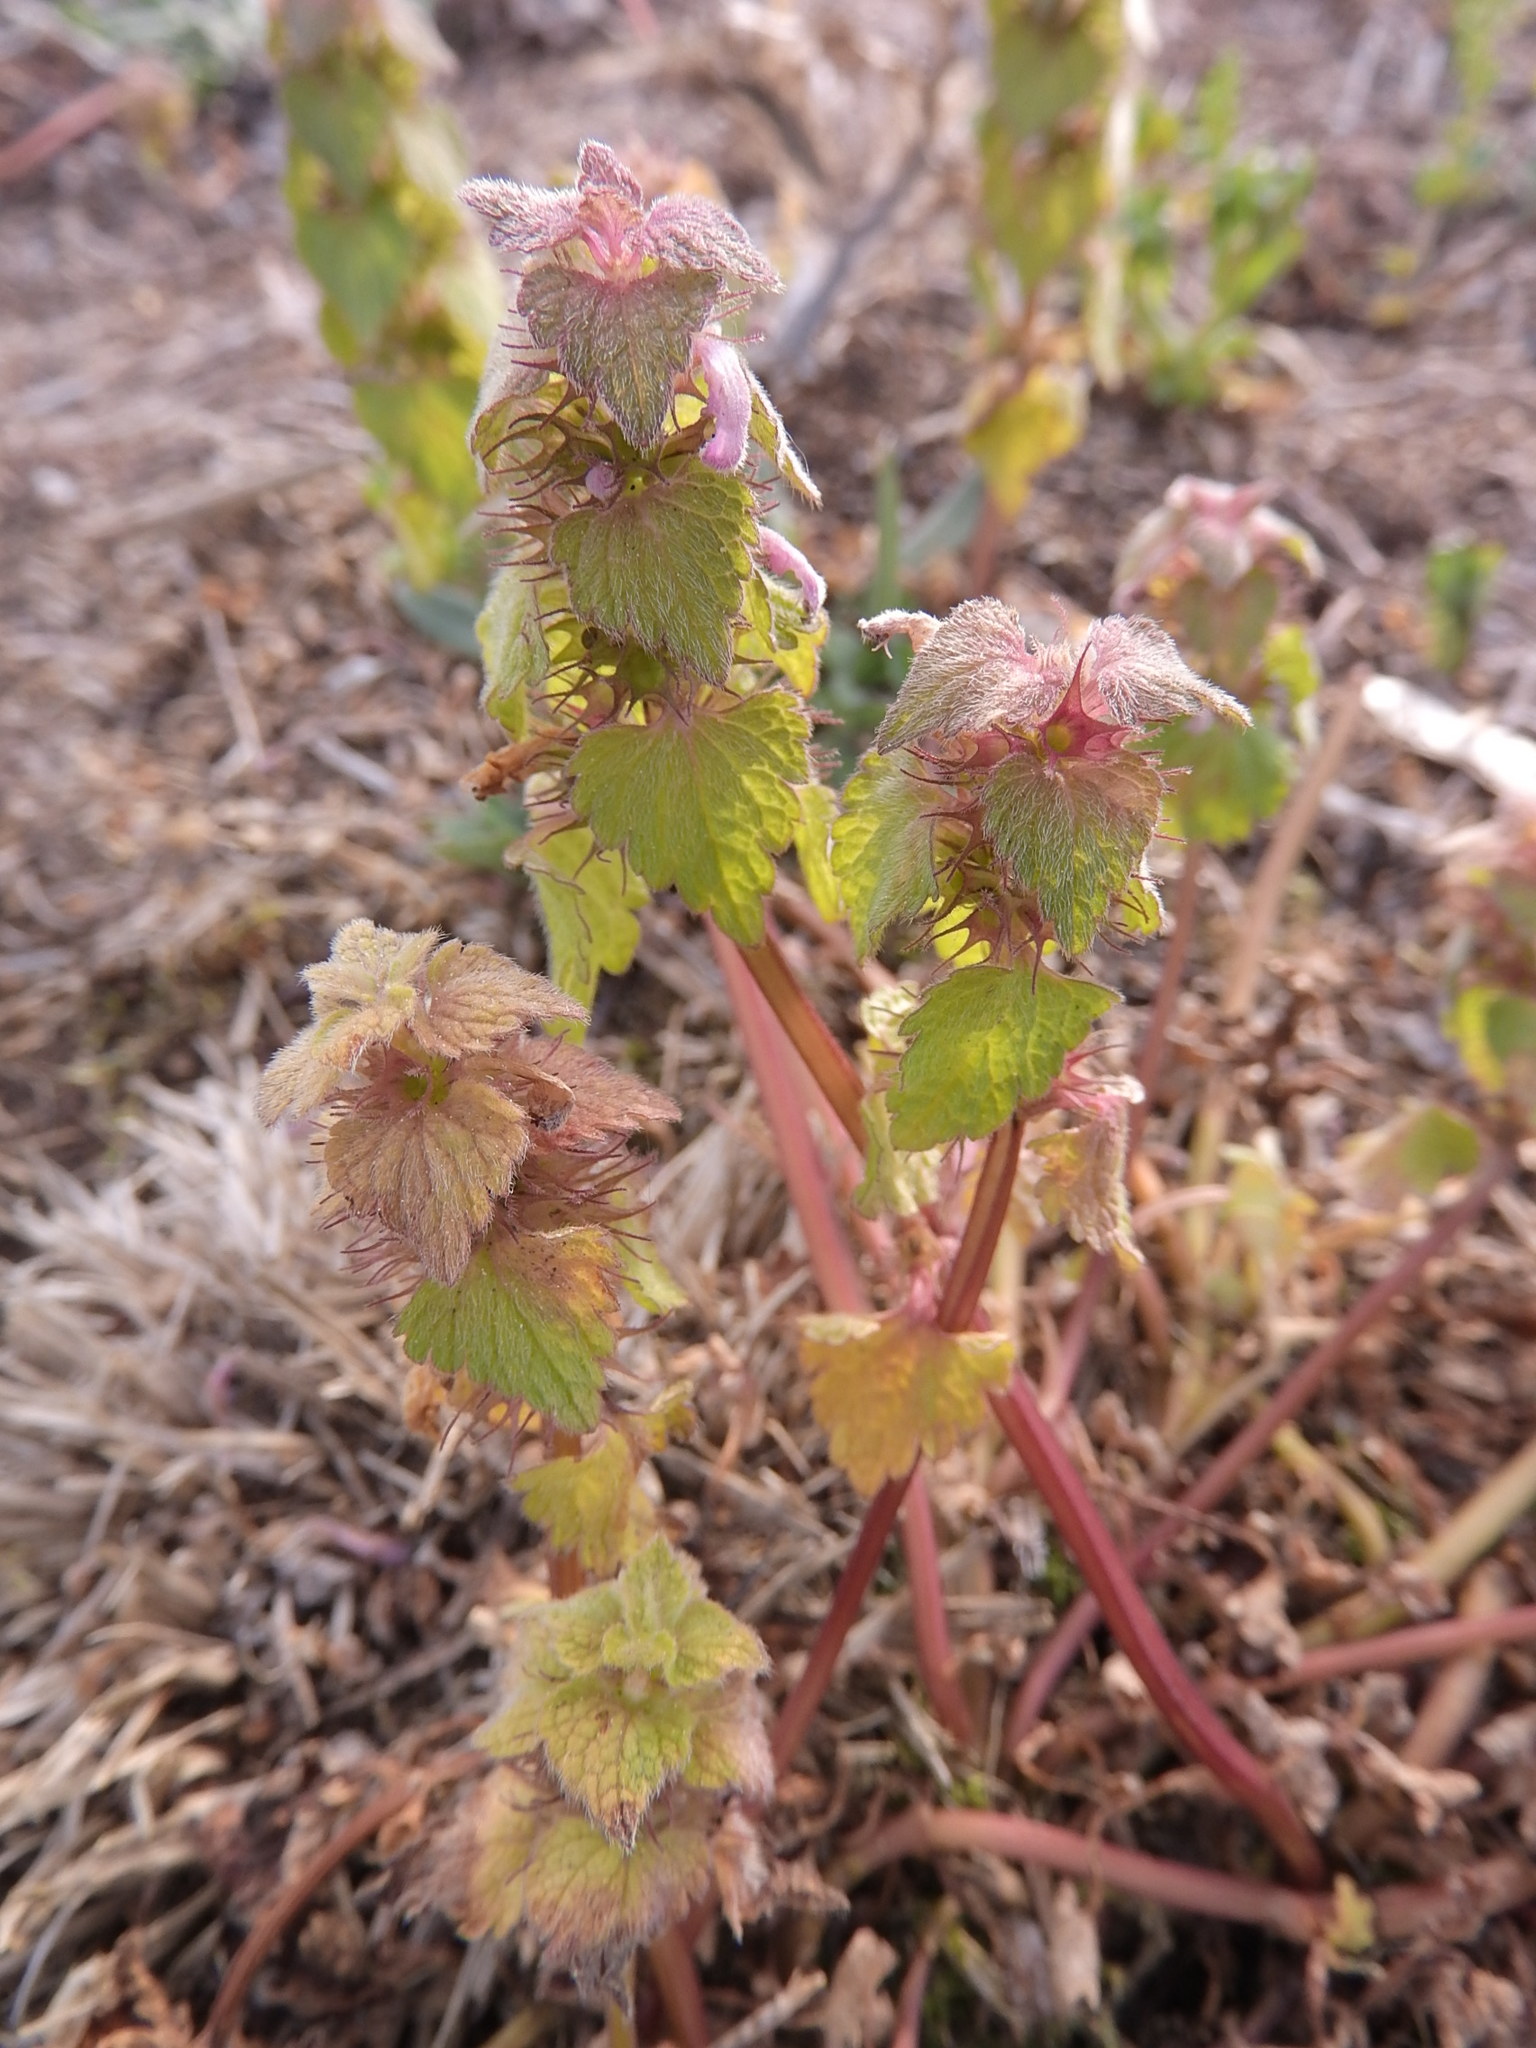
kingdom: Plantae
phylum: Tracheophyta
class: Magnoliopsida
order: Lamiales
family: Lamiaceae
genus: Lamium
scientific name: Lamium purpureum
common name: Red dead-nettle
